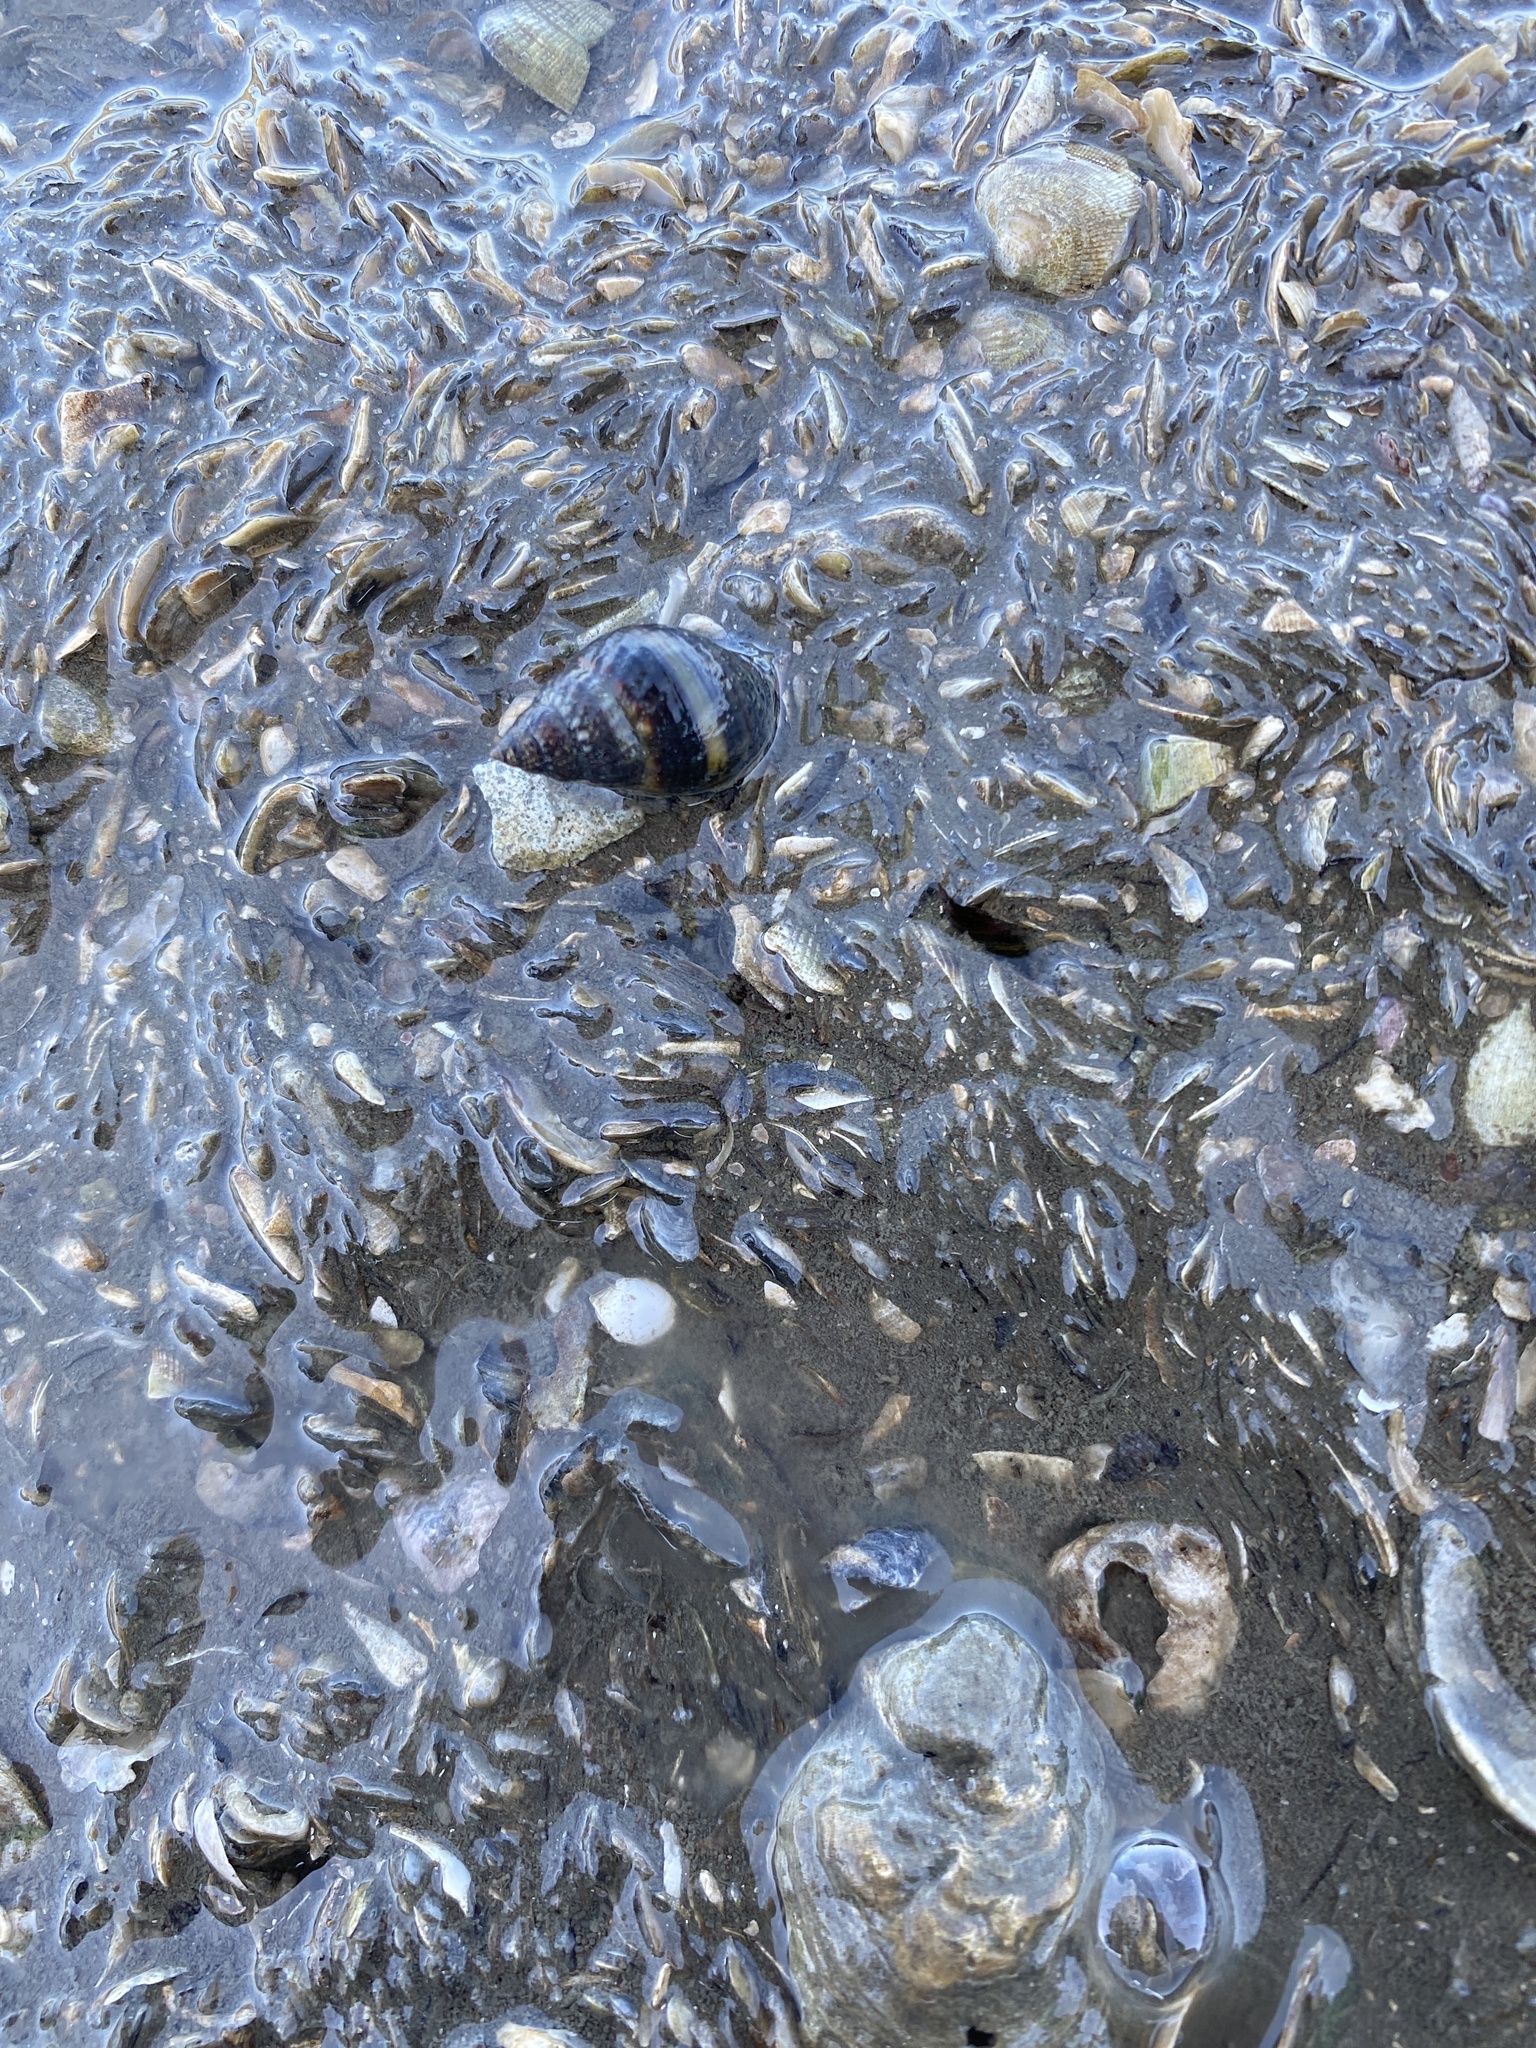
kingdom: Animalia
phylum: Mollusca
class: Gastropoda
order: Neogastropoda
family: Nassariidae
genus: Ilyanassa
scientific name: Ilyanassa obsoleta
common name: Eastern mudsnail
